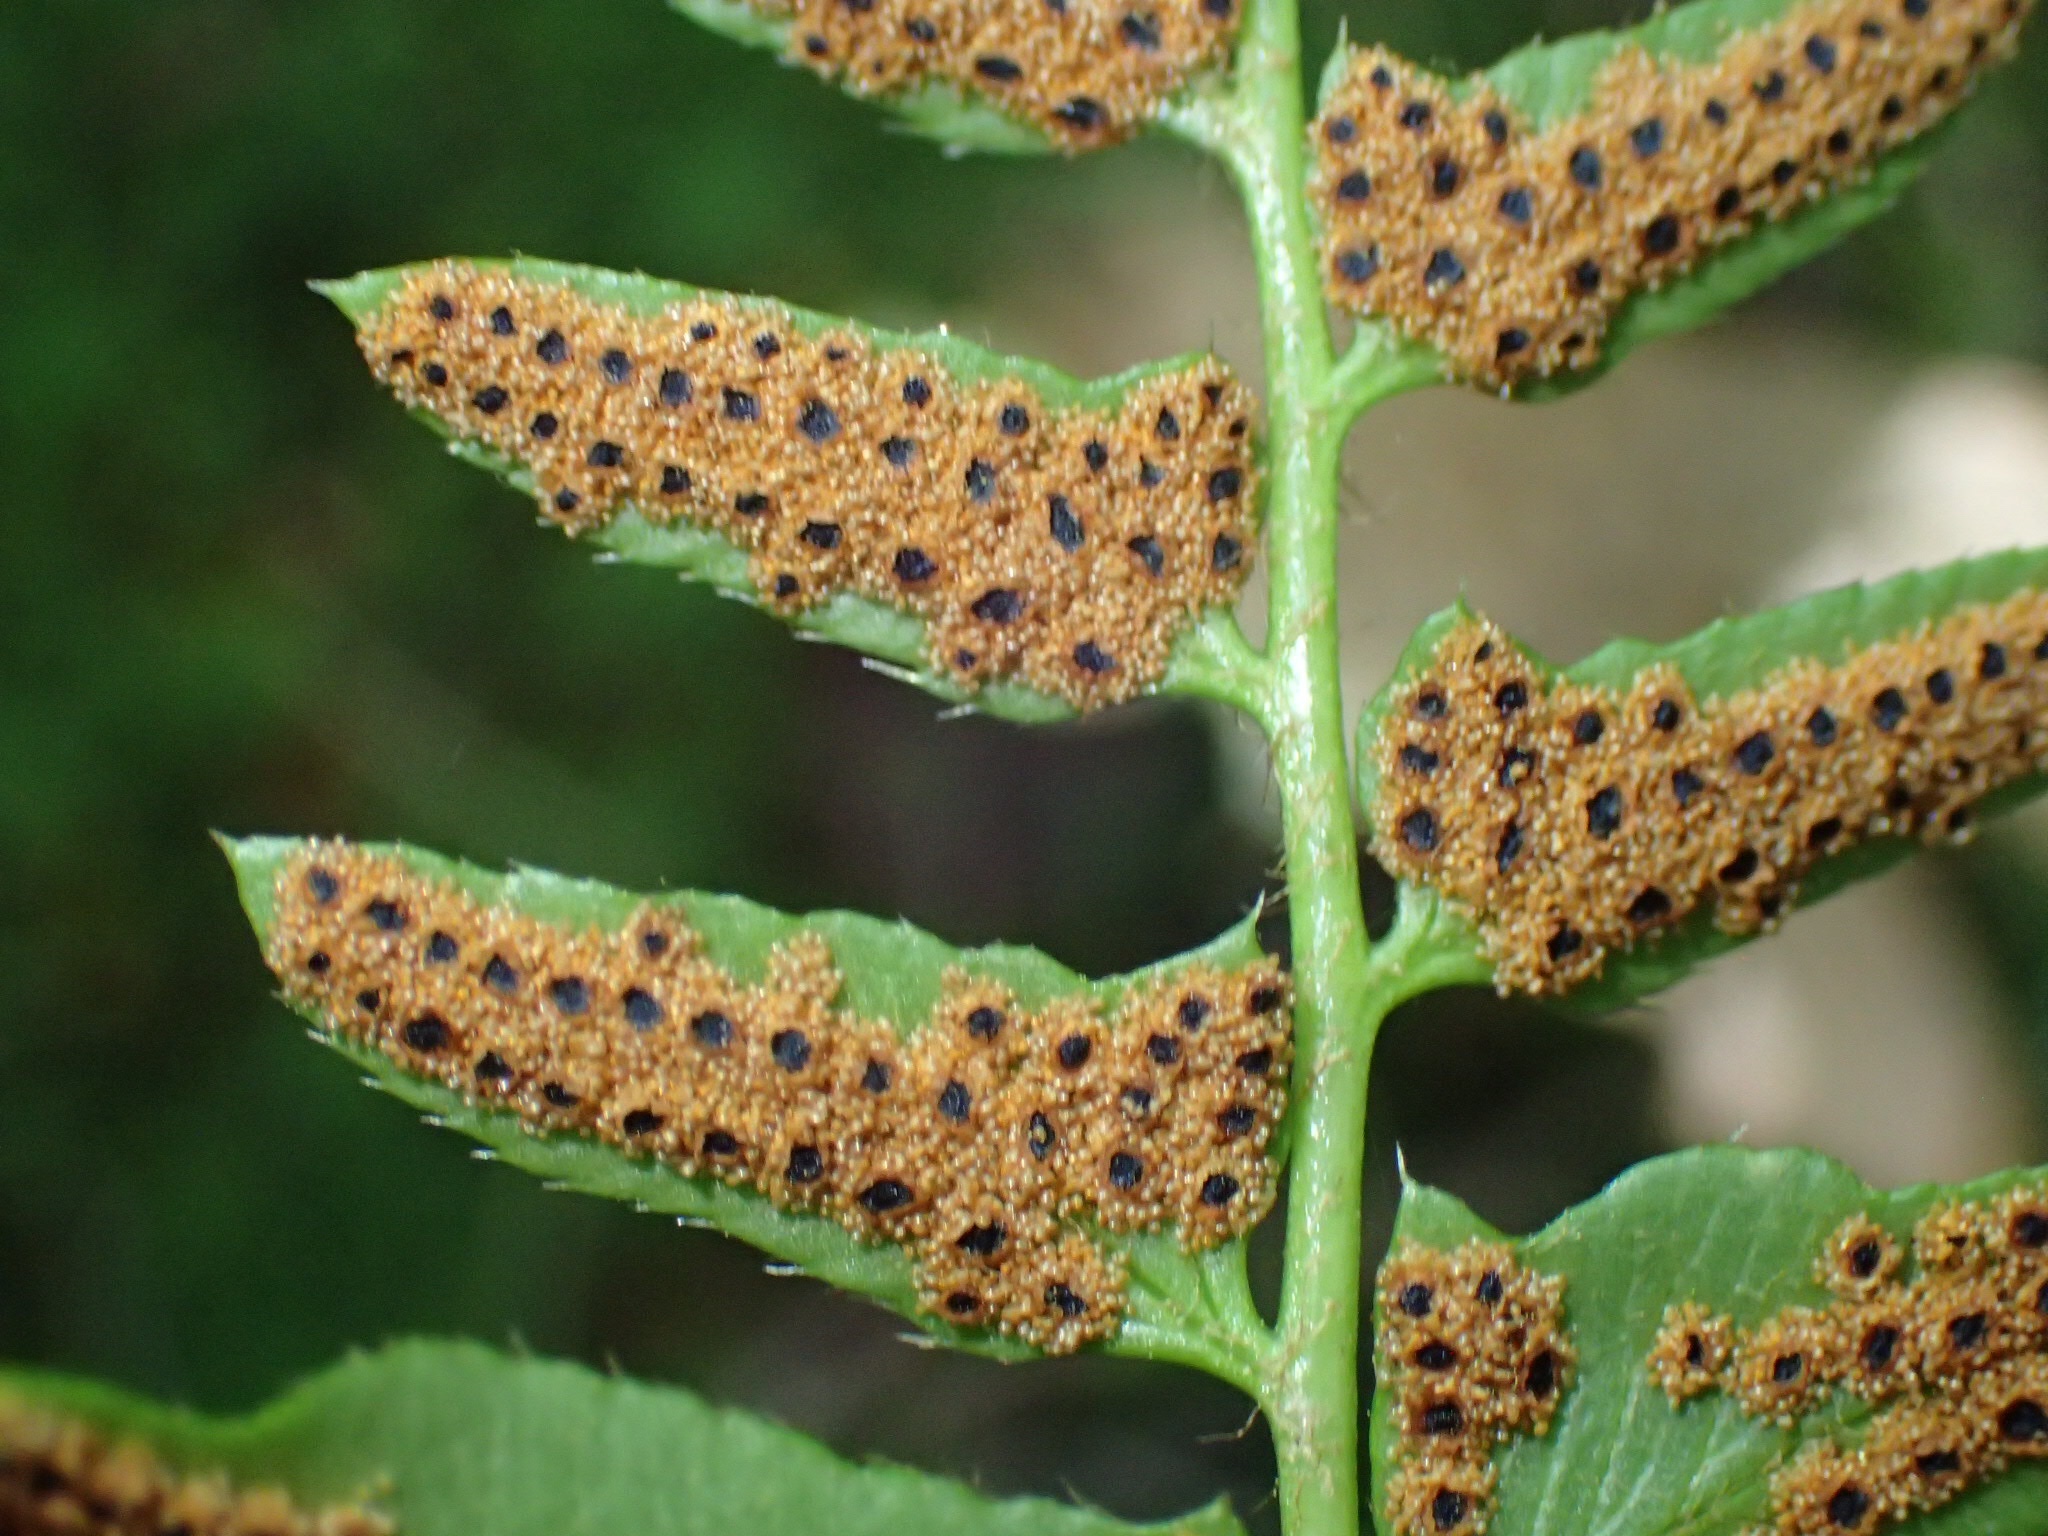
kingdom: Plantae
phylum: Tracheophyta
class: Polypodiopsida
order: Polypodiales
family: Dryopteridaceae
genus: Polystichum
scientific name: Polystichum acrostichoides
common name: Christmas fern
